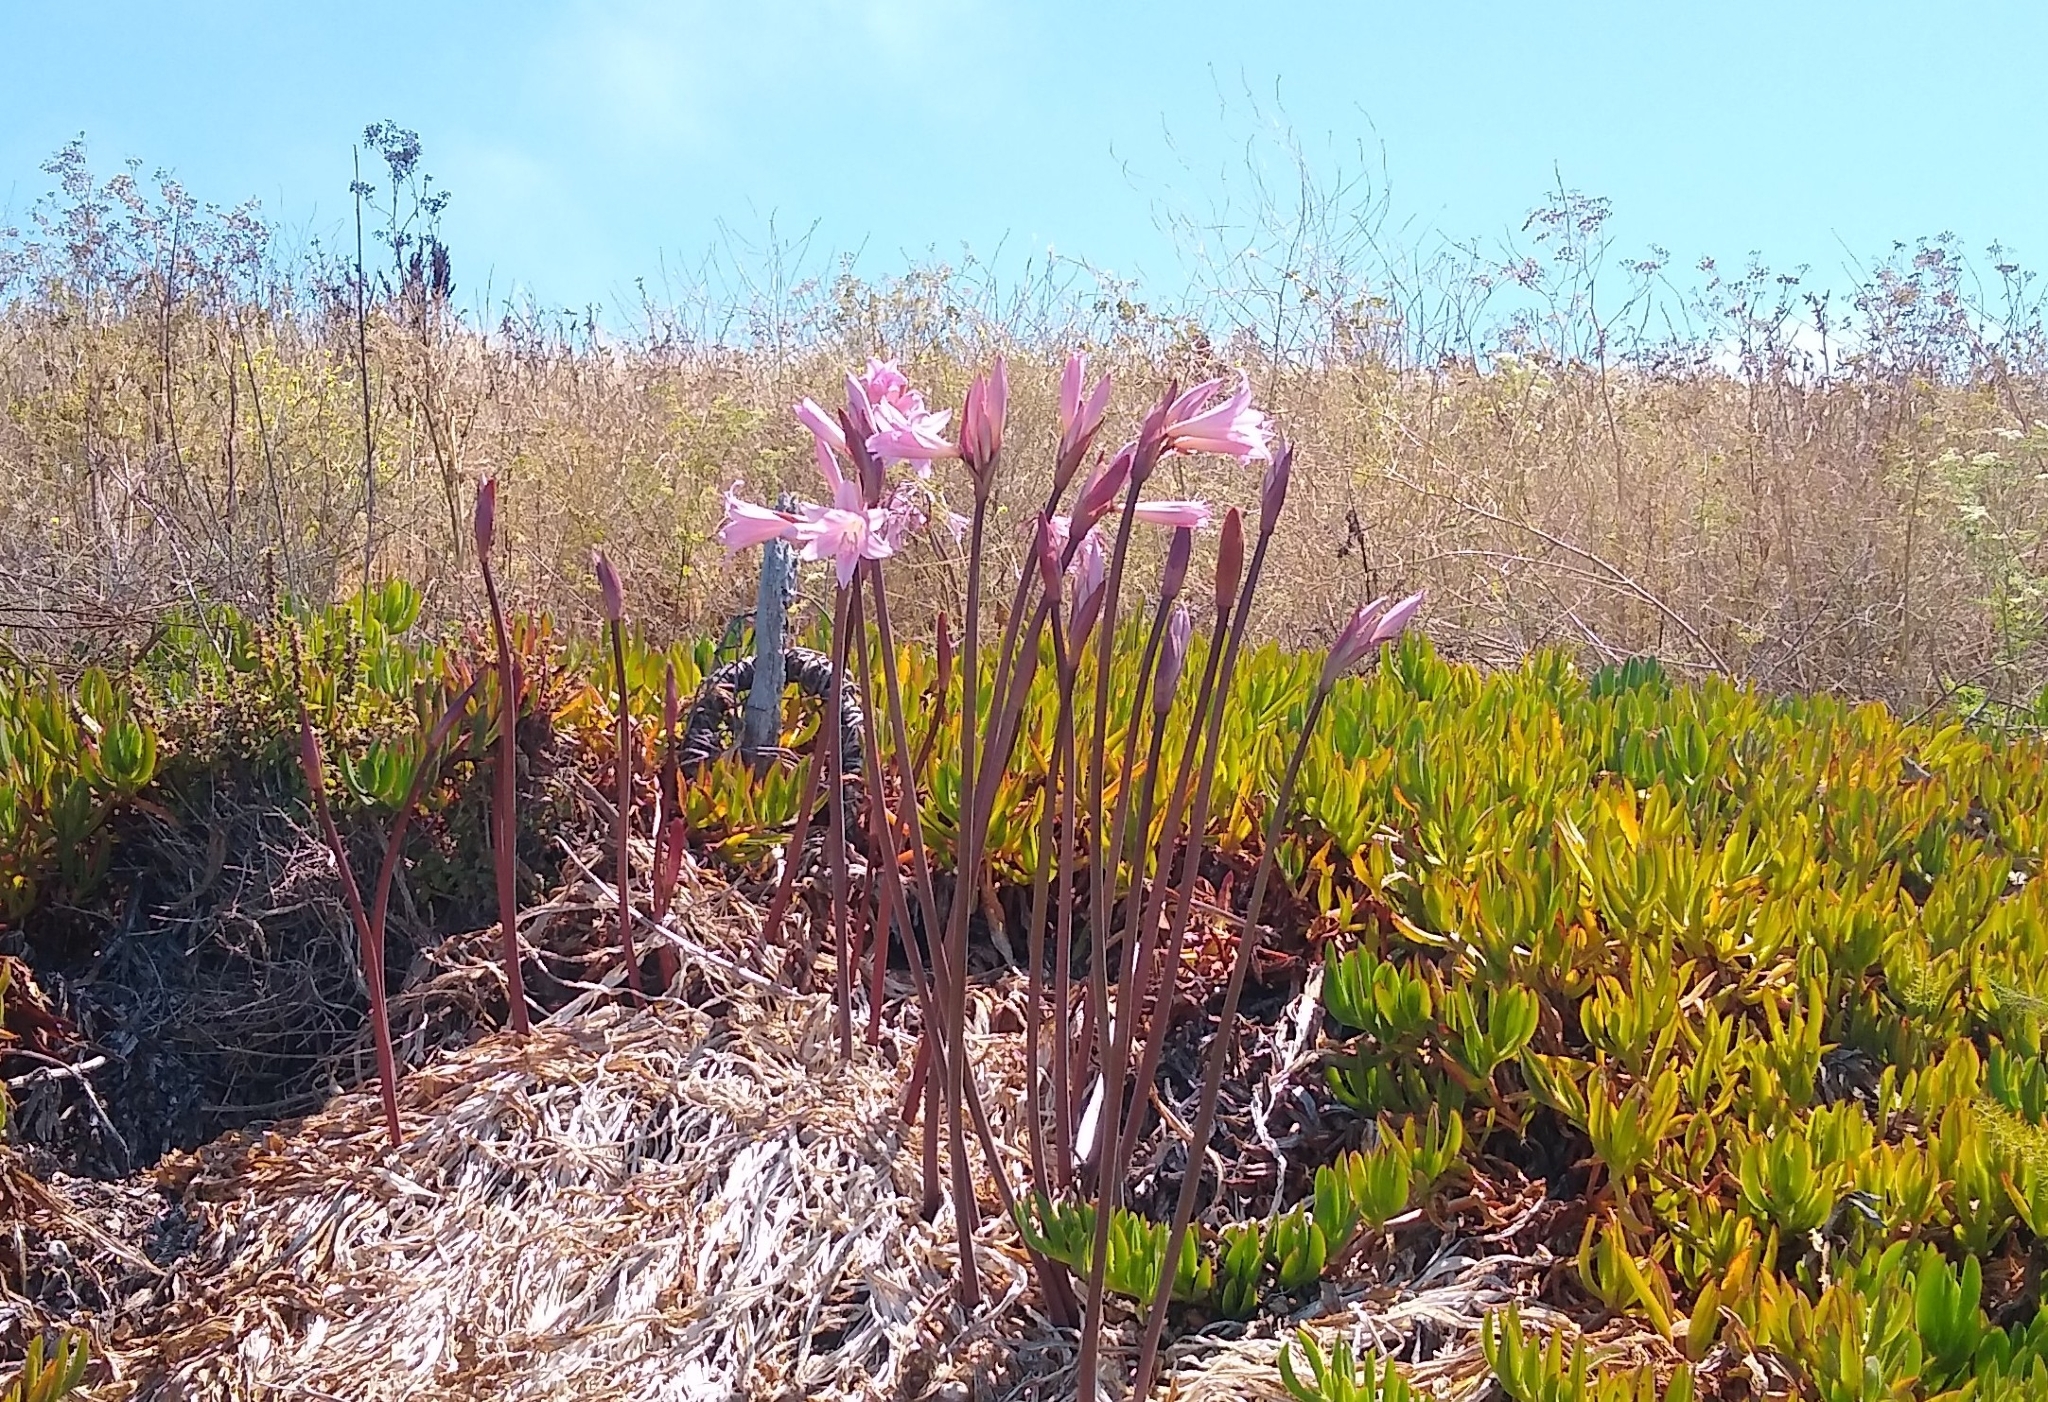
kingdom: Plantae
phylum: Tracheophyta
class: Liliopsida
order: Asparagales
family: Amaryllidaceae
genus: Amaryllis
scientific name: Amaryllis belladonna
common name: Jersey lily
